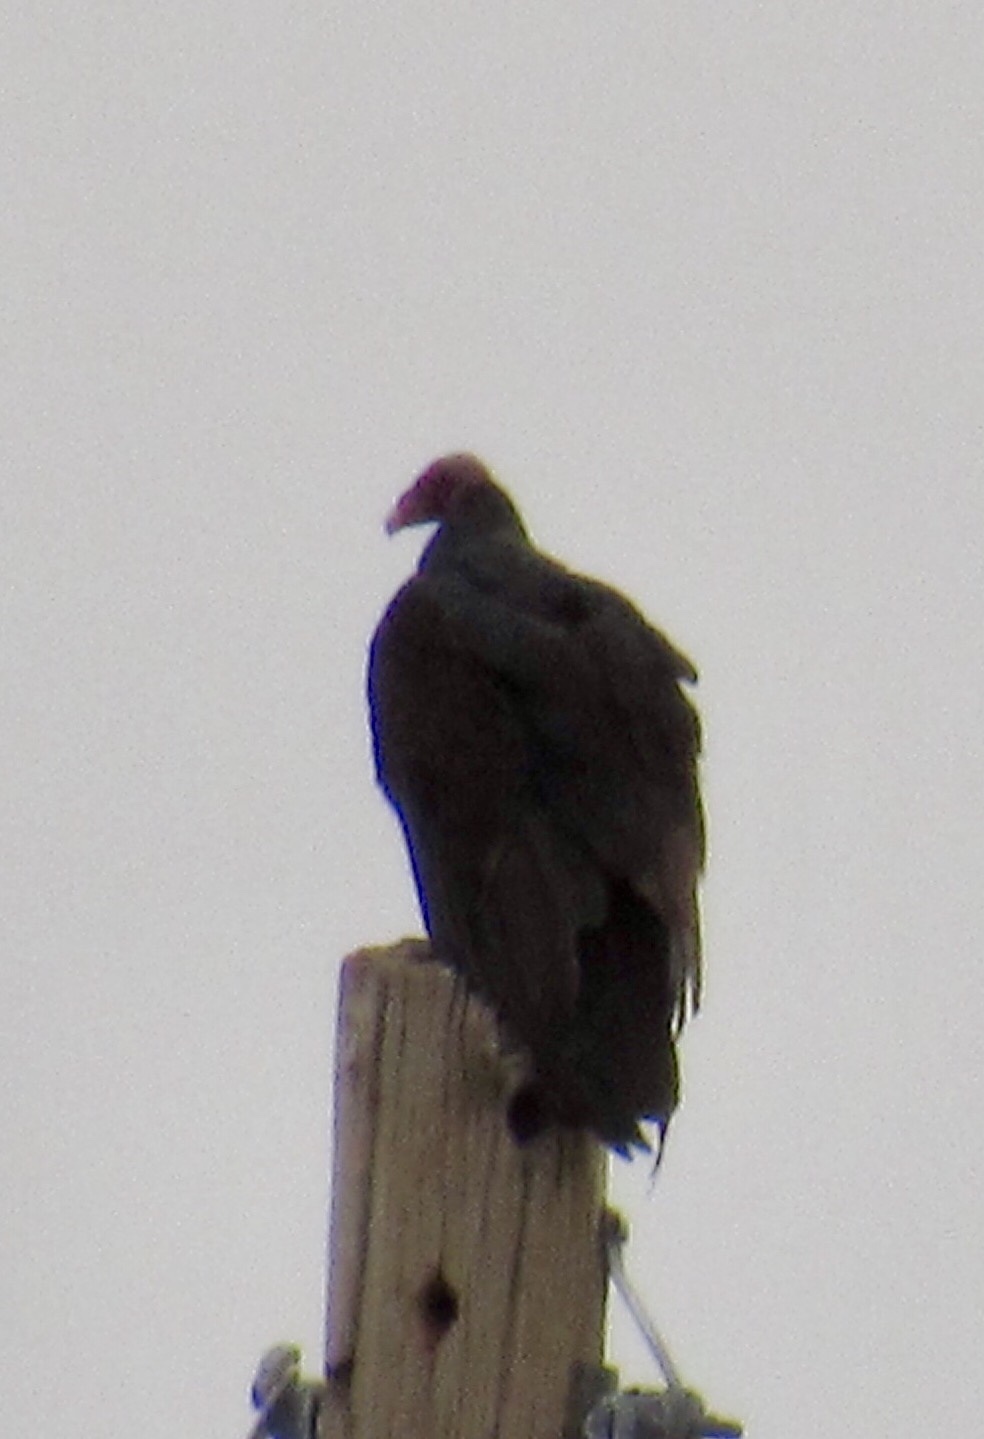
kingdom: Animalia
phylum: Chordata
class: Aves
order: Accipitriformes
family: Cathartidae
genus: Cathartes
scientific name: Cathartes aura
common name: Turkey vulture
